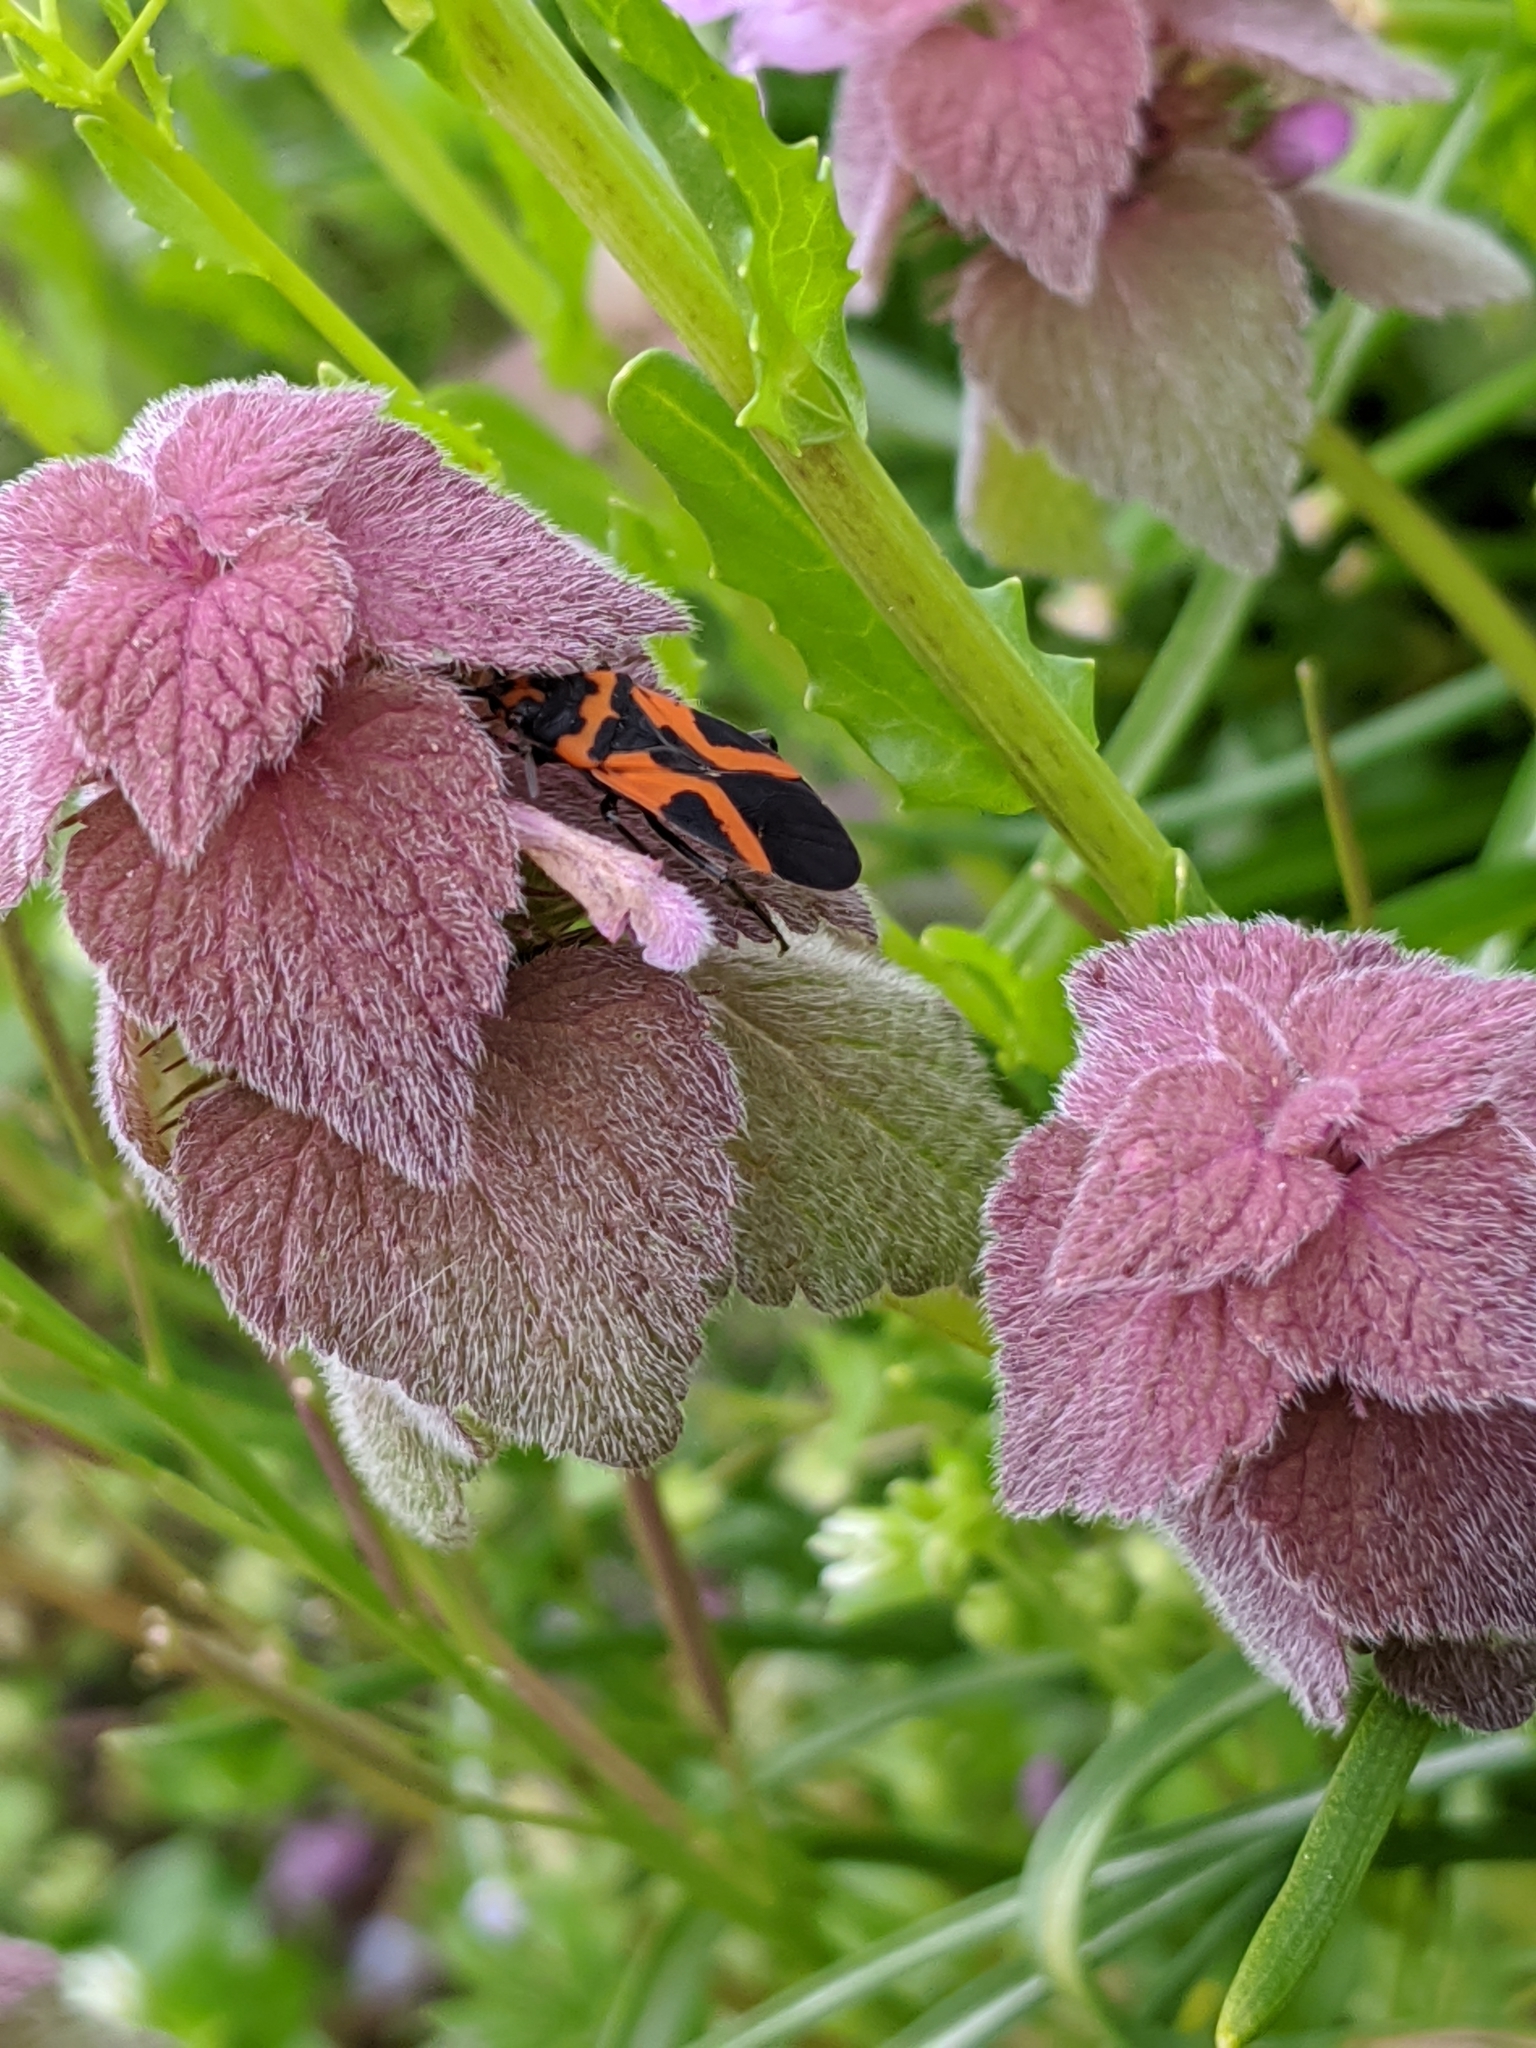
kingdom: Animalia
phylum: Arthropoda
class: Insecta
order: Hemiptera
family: Lygaeidae
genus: Lygaeus
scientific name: Lygaeus turcicus
